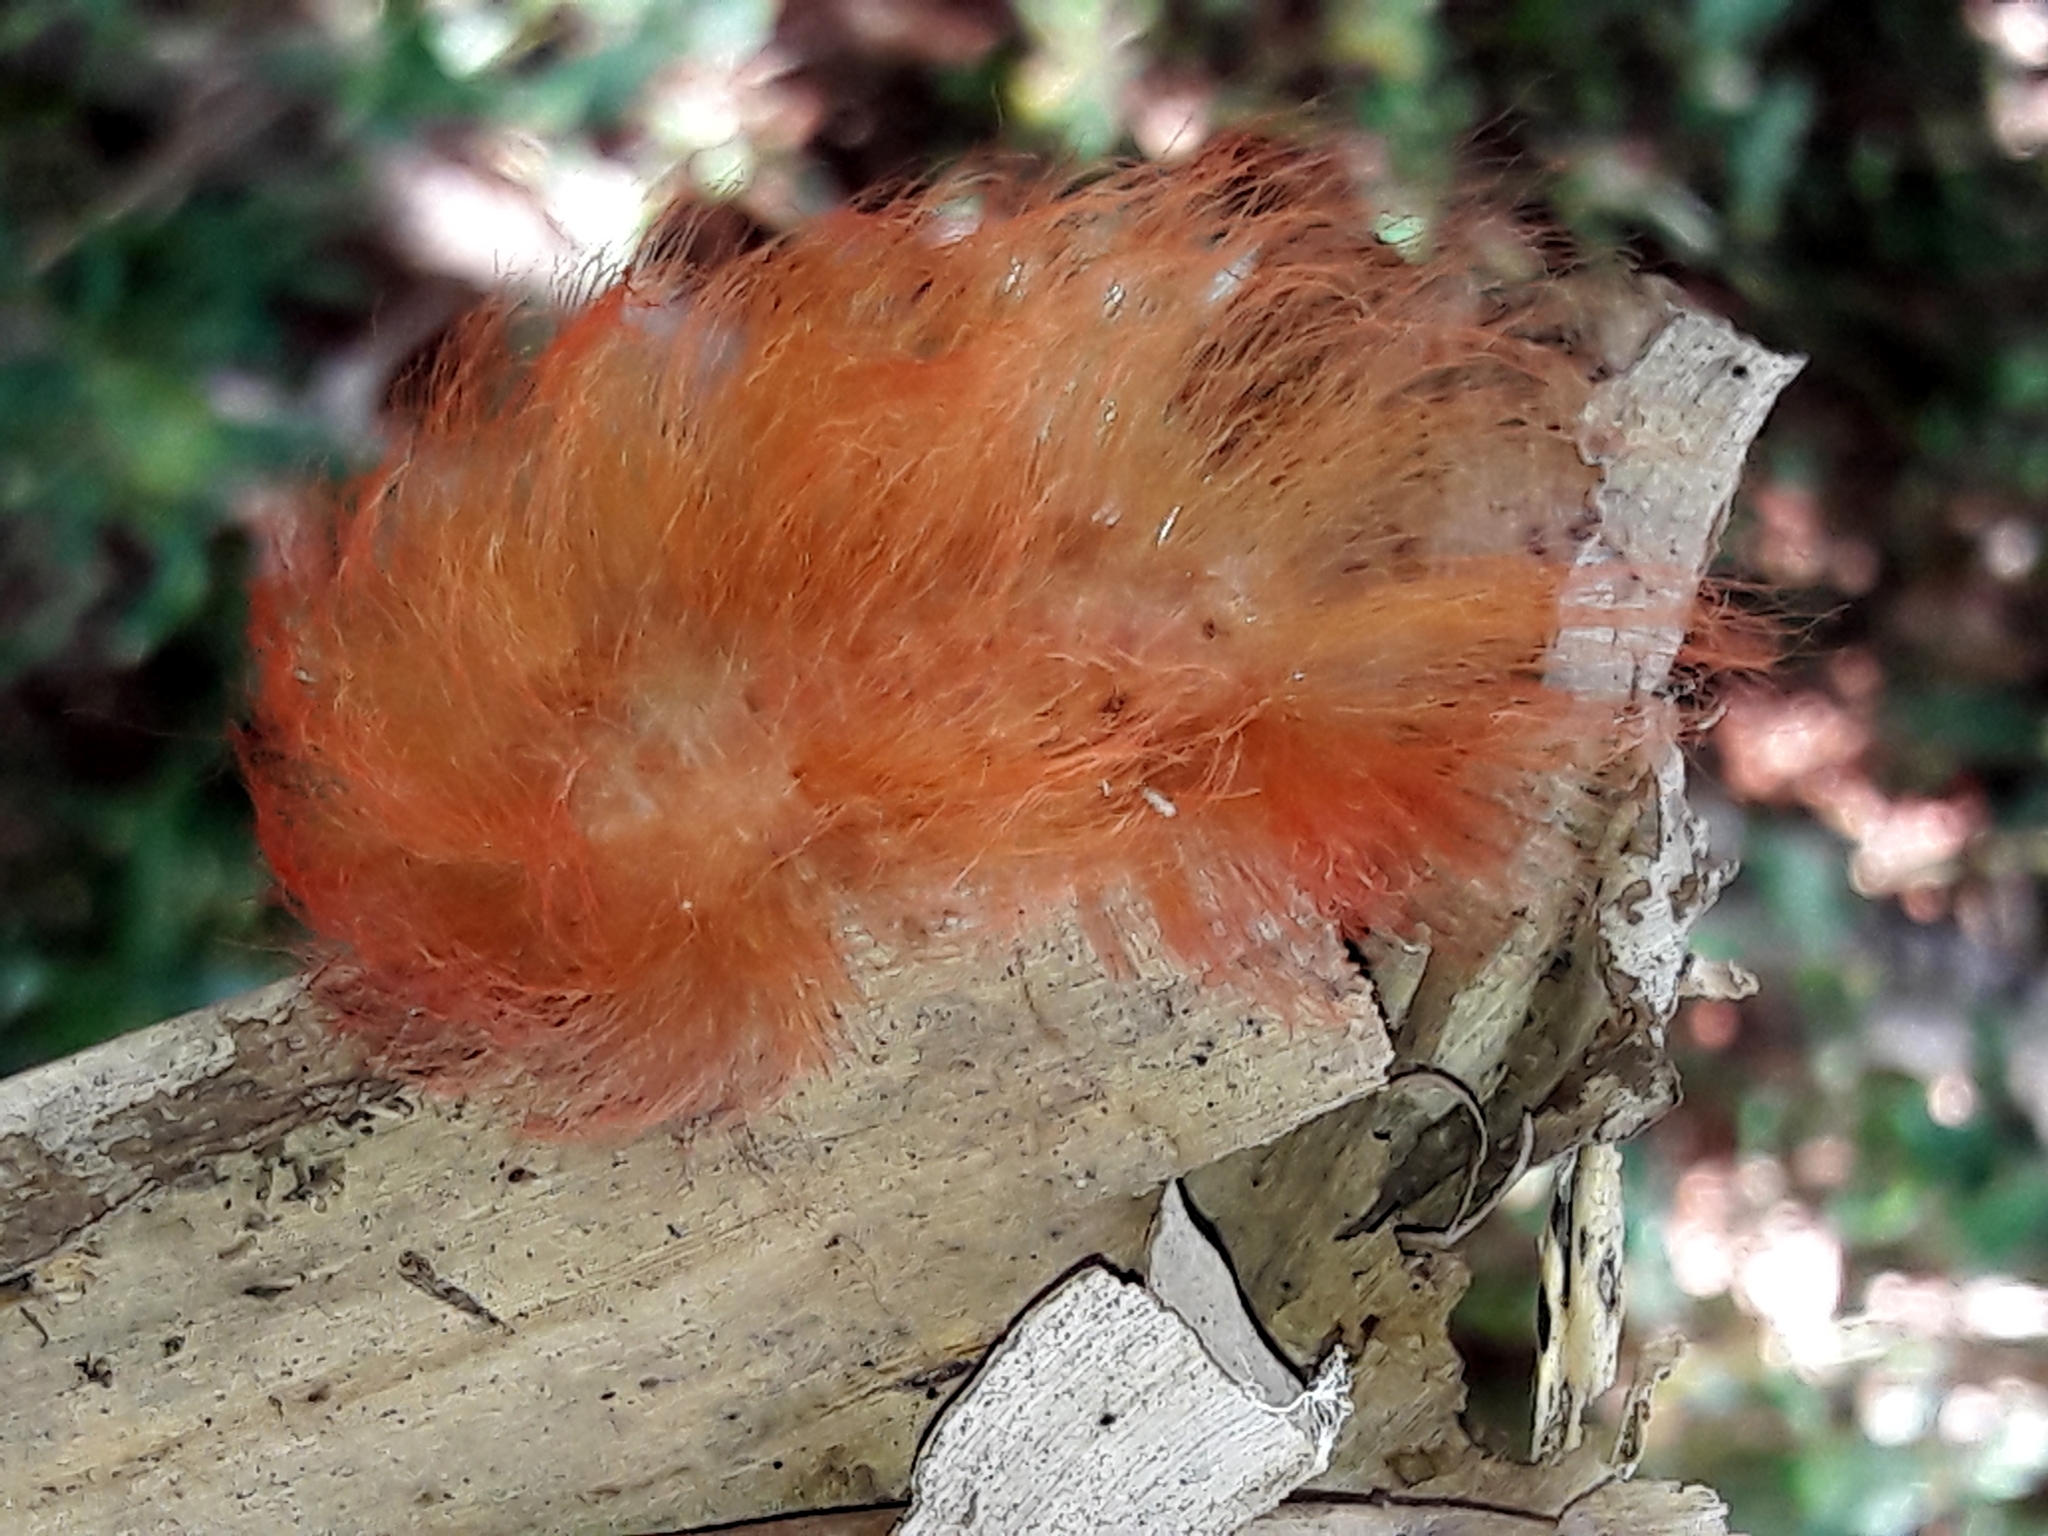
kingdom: Animalia
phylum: Arthropoda
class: Insecta
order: Lepidoptera
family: Megalopygidae
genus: Megalopyge
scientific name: Megalopyge albicollis
